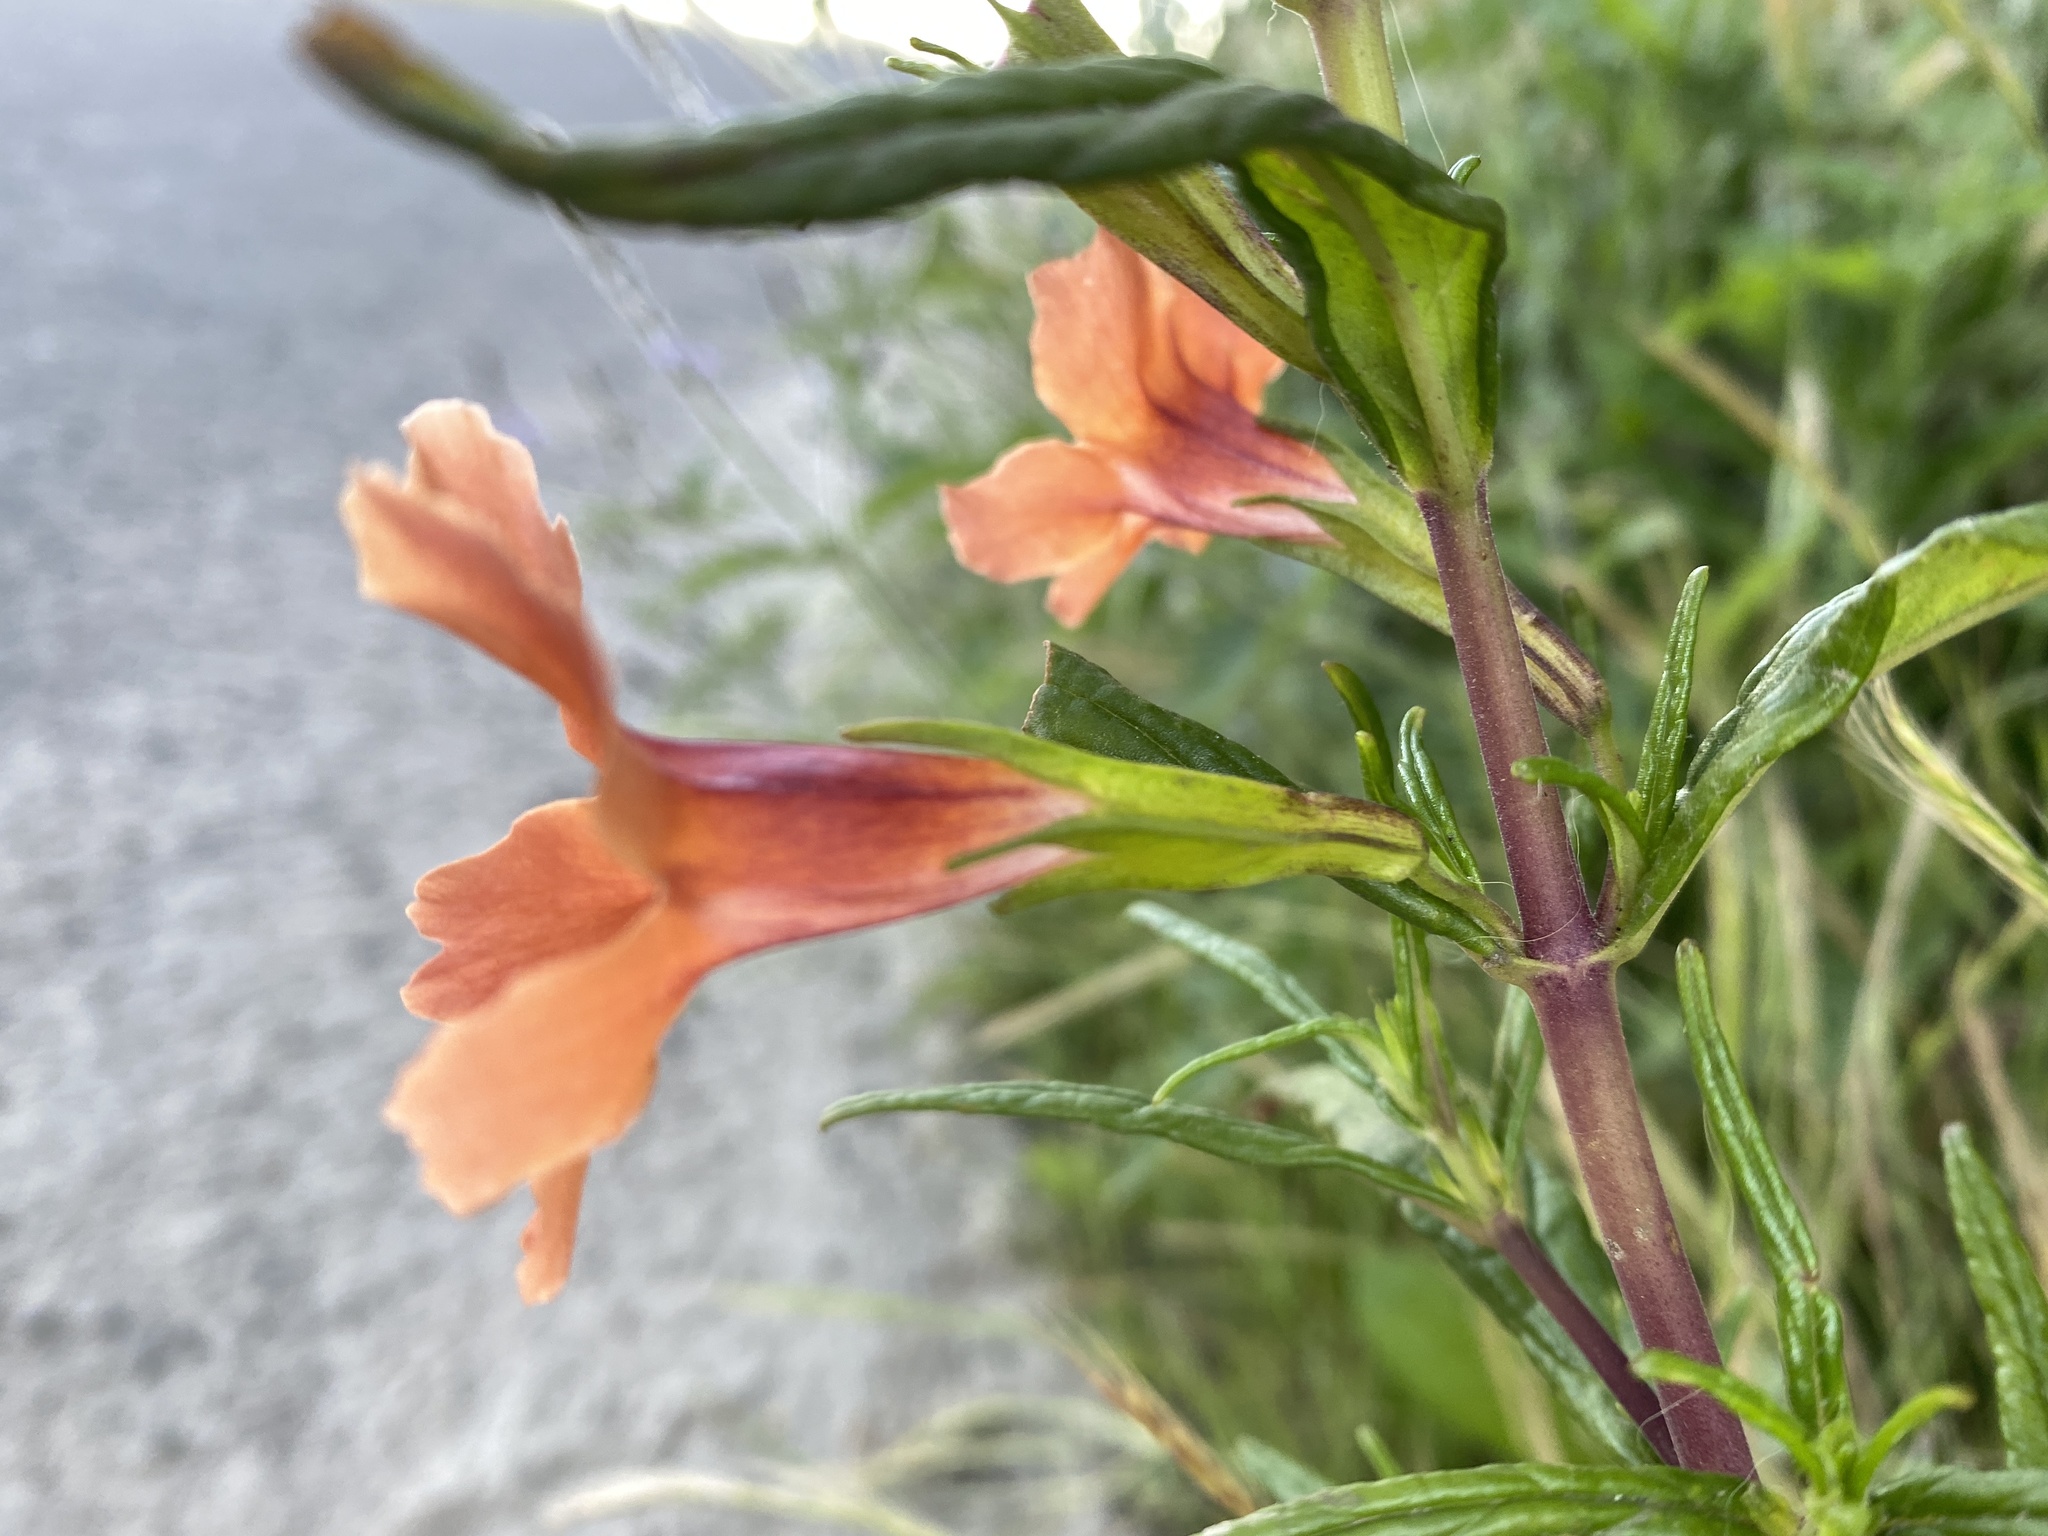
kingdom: Plantae
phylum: Tracheophyta
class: Magnoliopsida
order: Lamiales
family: Phrymaceae
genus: Diplacus
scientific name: Diplacus australis
